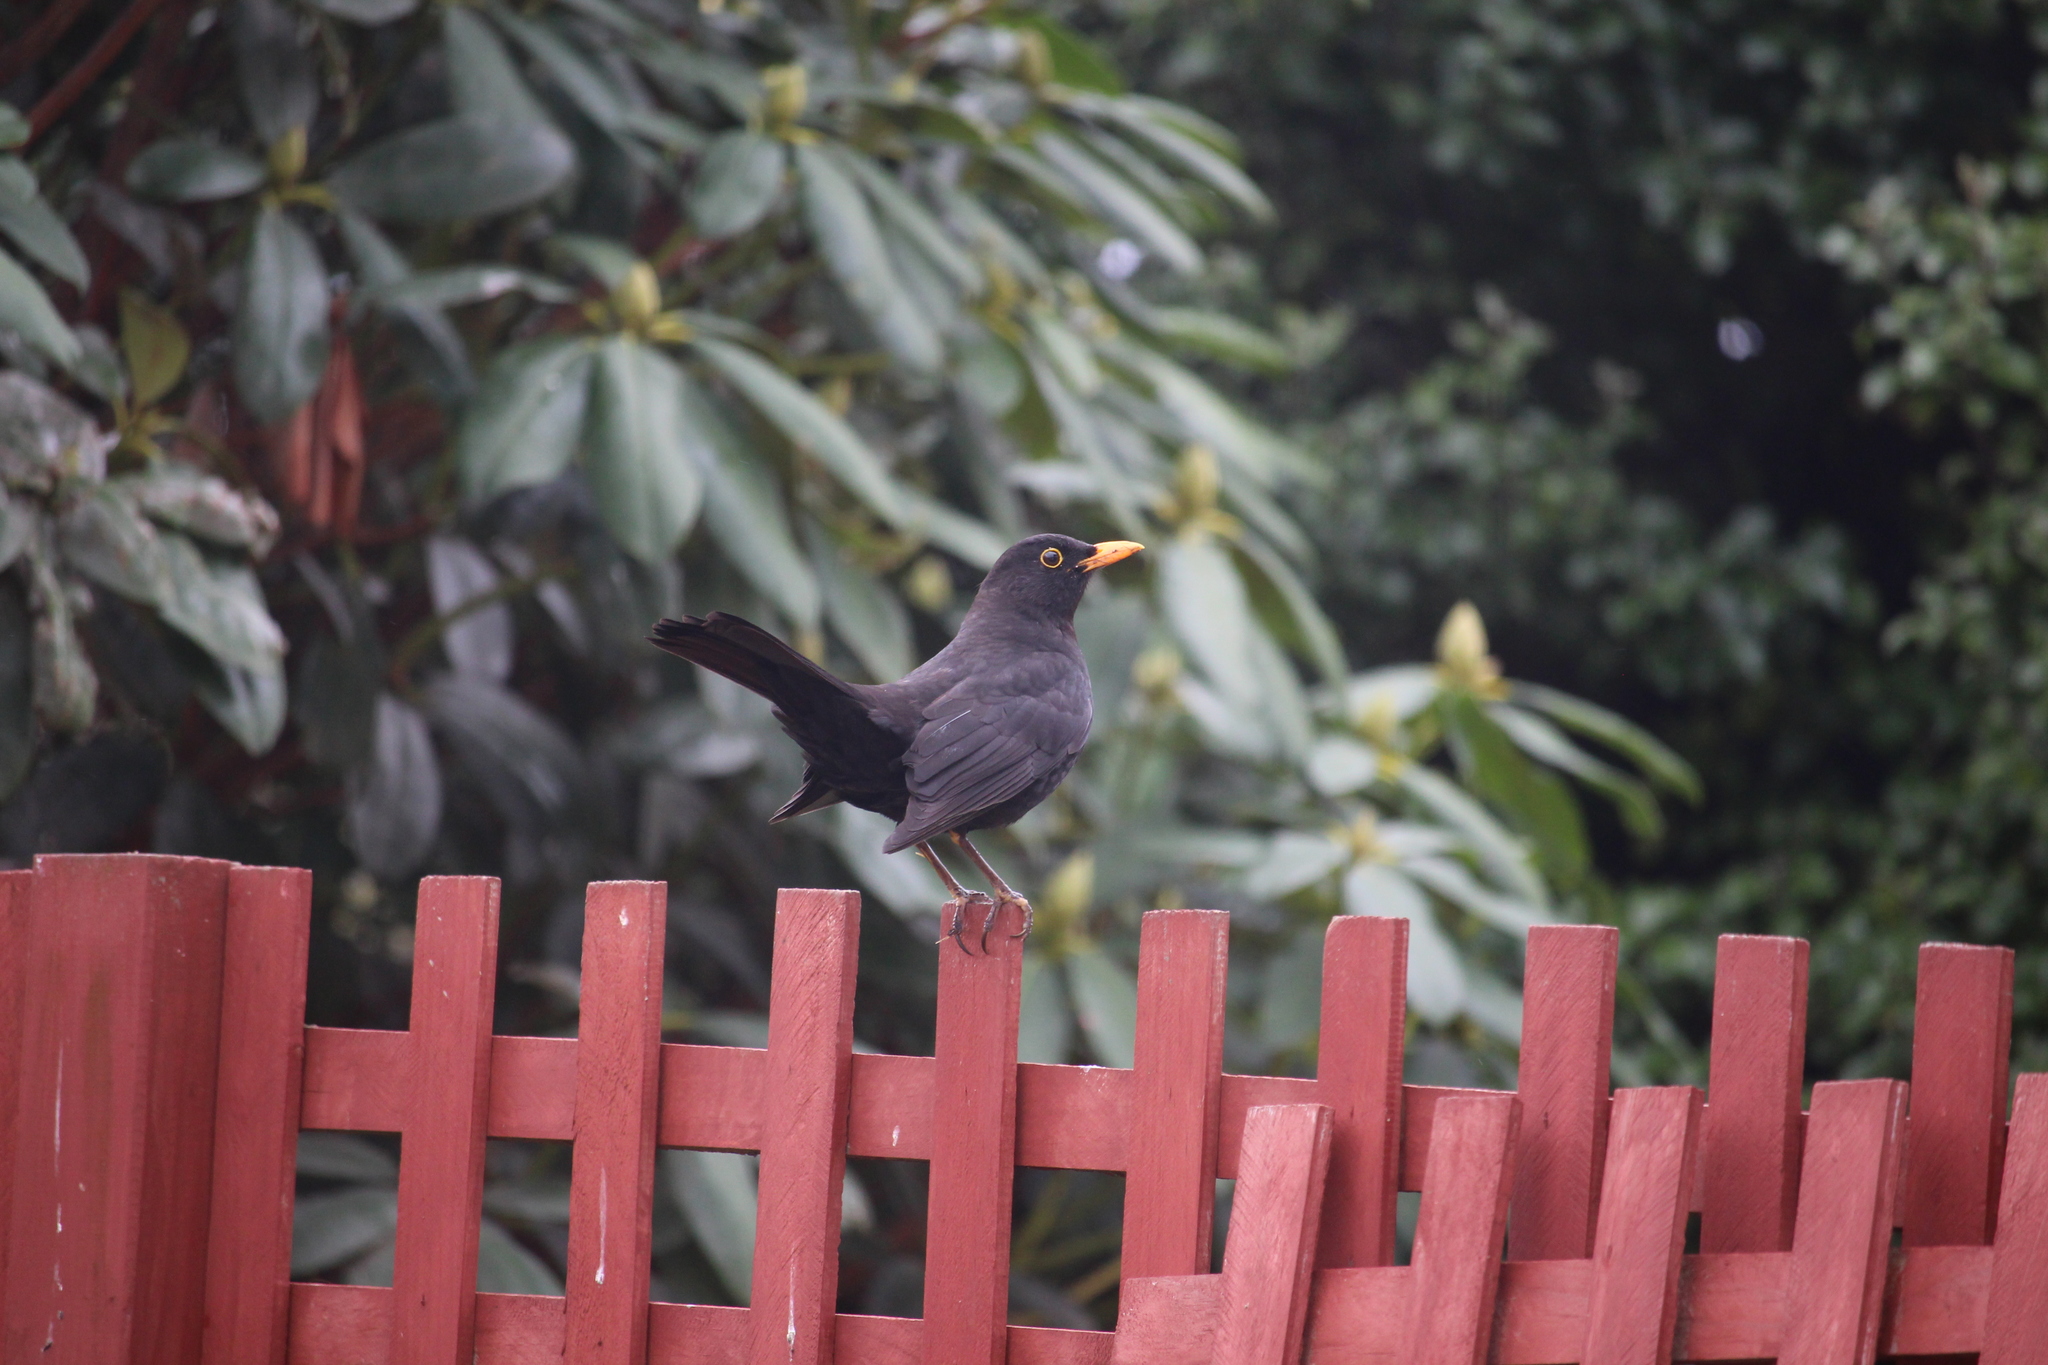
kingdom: Animalia
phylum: Chordata
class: Aves
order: Passeriformes
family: Turdidae
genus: Turdus
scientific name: Turdus merula
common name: Common blackbird
